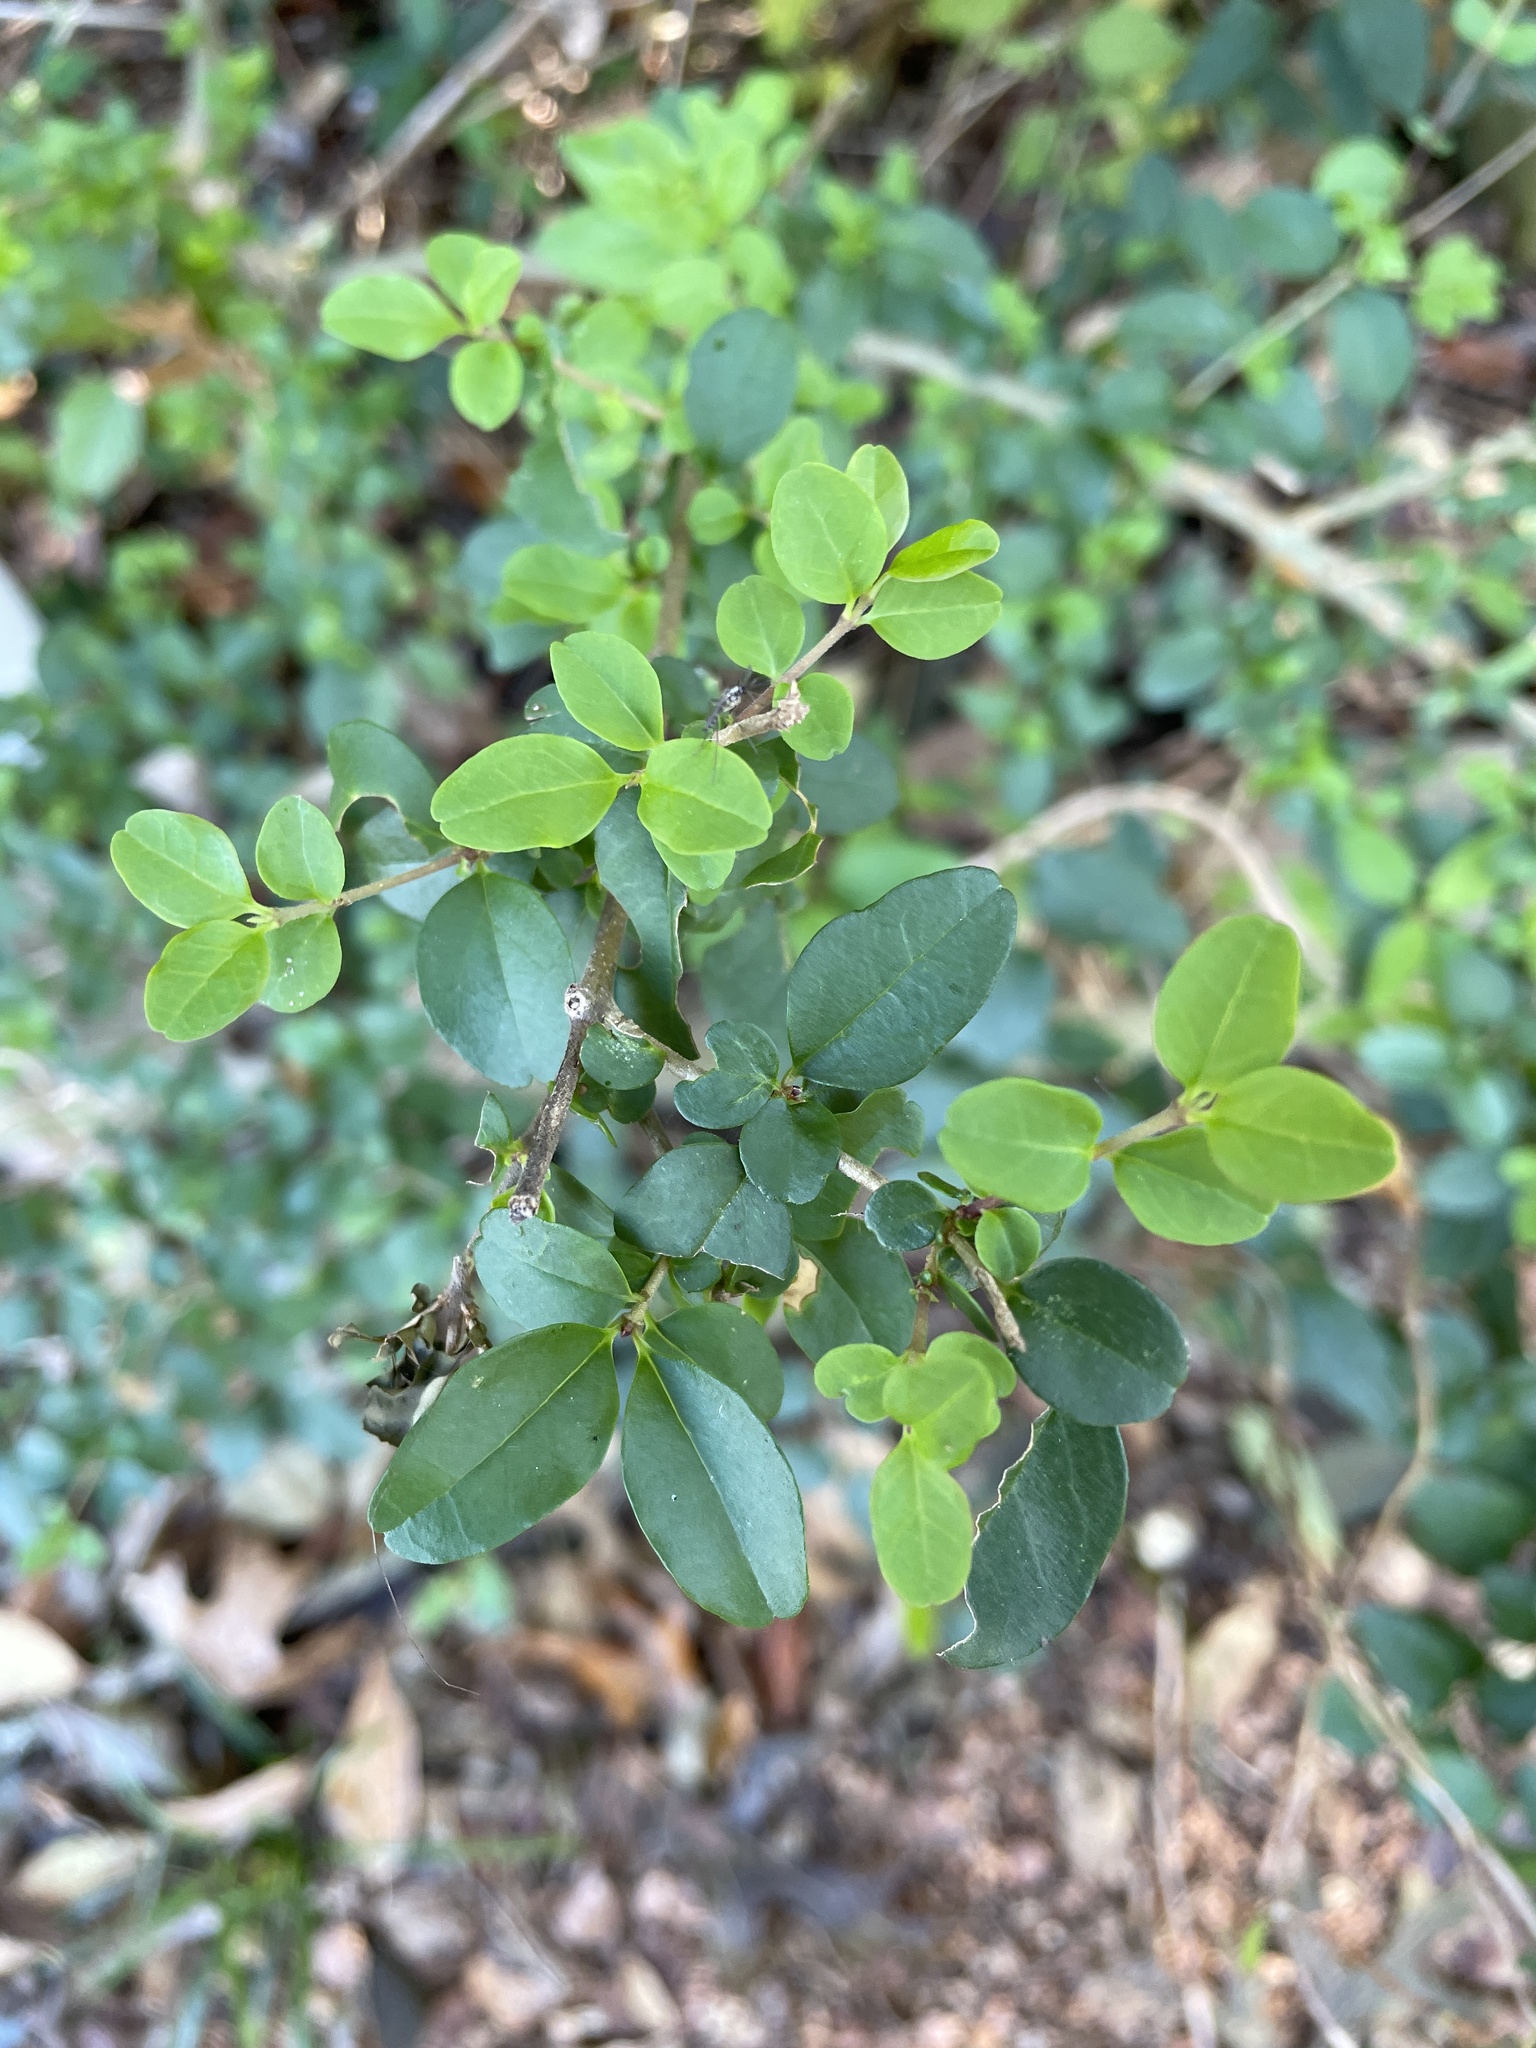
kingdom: Plantae
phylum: Tracheophyta
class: Magnoliopsida
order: Lamiales
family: Oleaceae
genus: Ligustrum
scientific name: Ligustrum sinense
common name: Chinese privet
